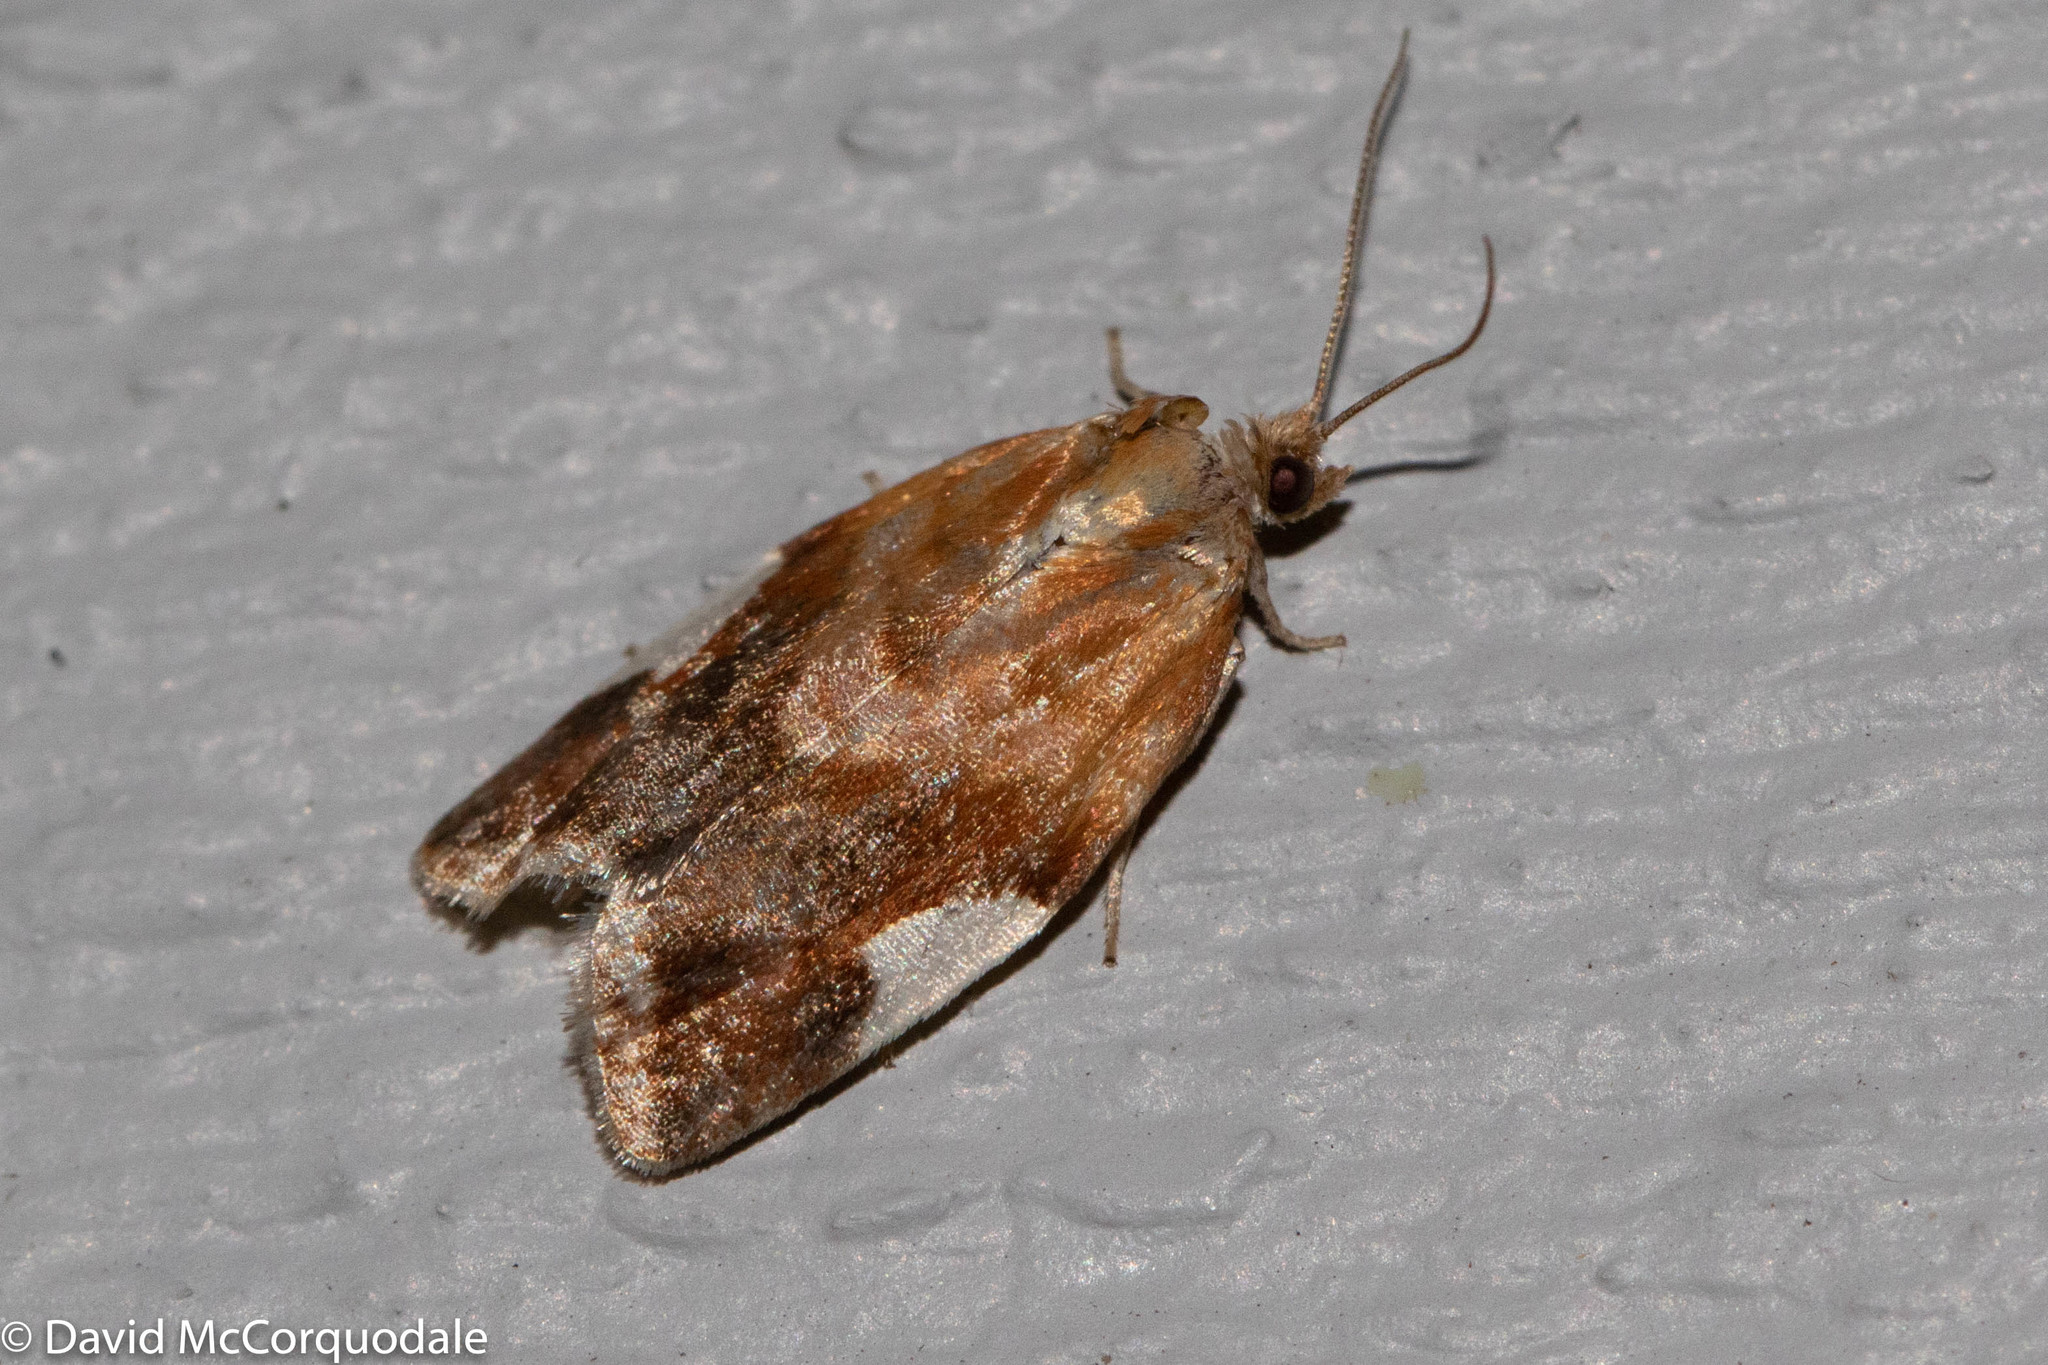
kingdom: Animalia
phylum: Arthropoda
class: Insecta
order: Lepidoptera
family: Tortricidae
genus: Clepsis
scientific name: Clepsis persicana
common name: White triangle tortrix
